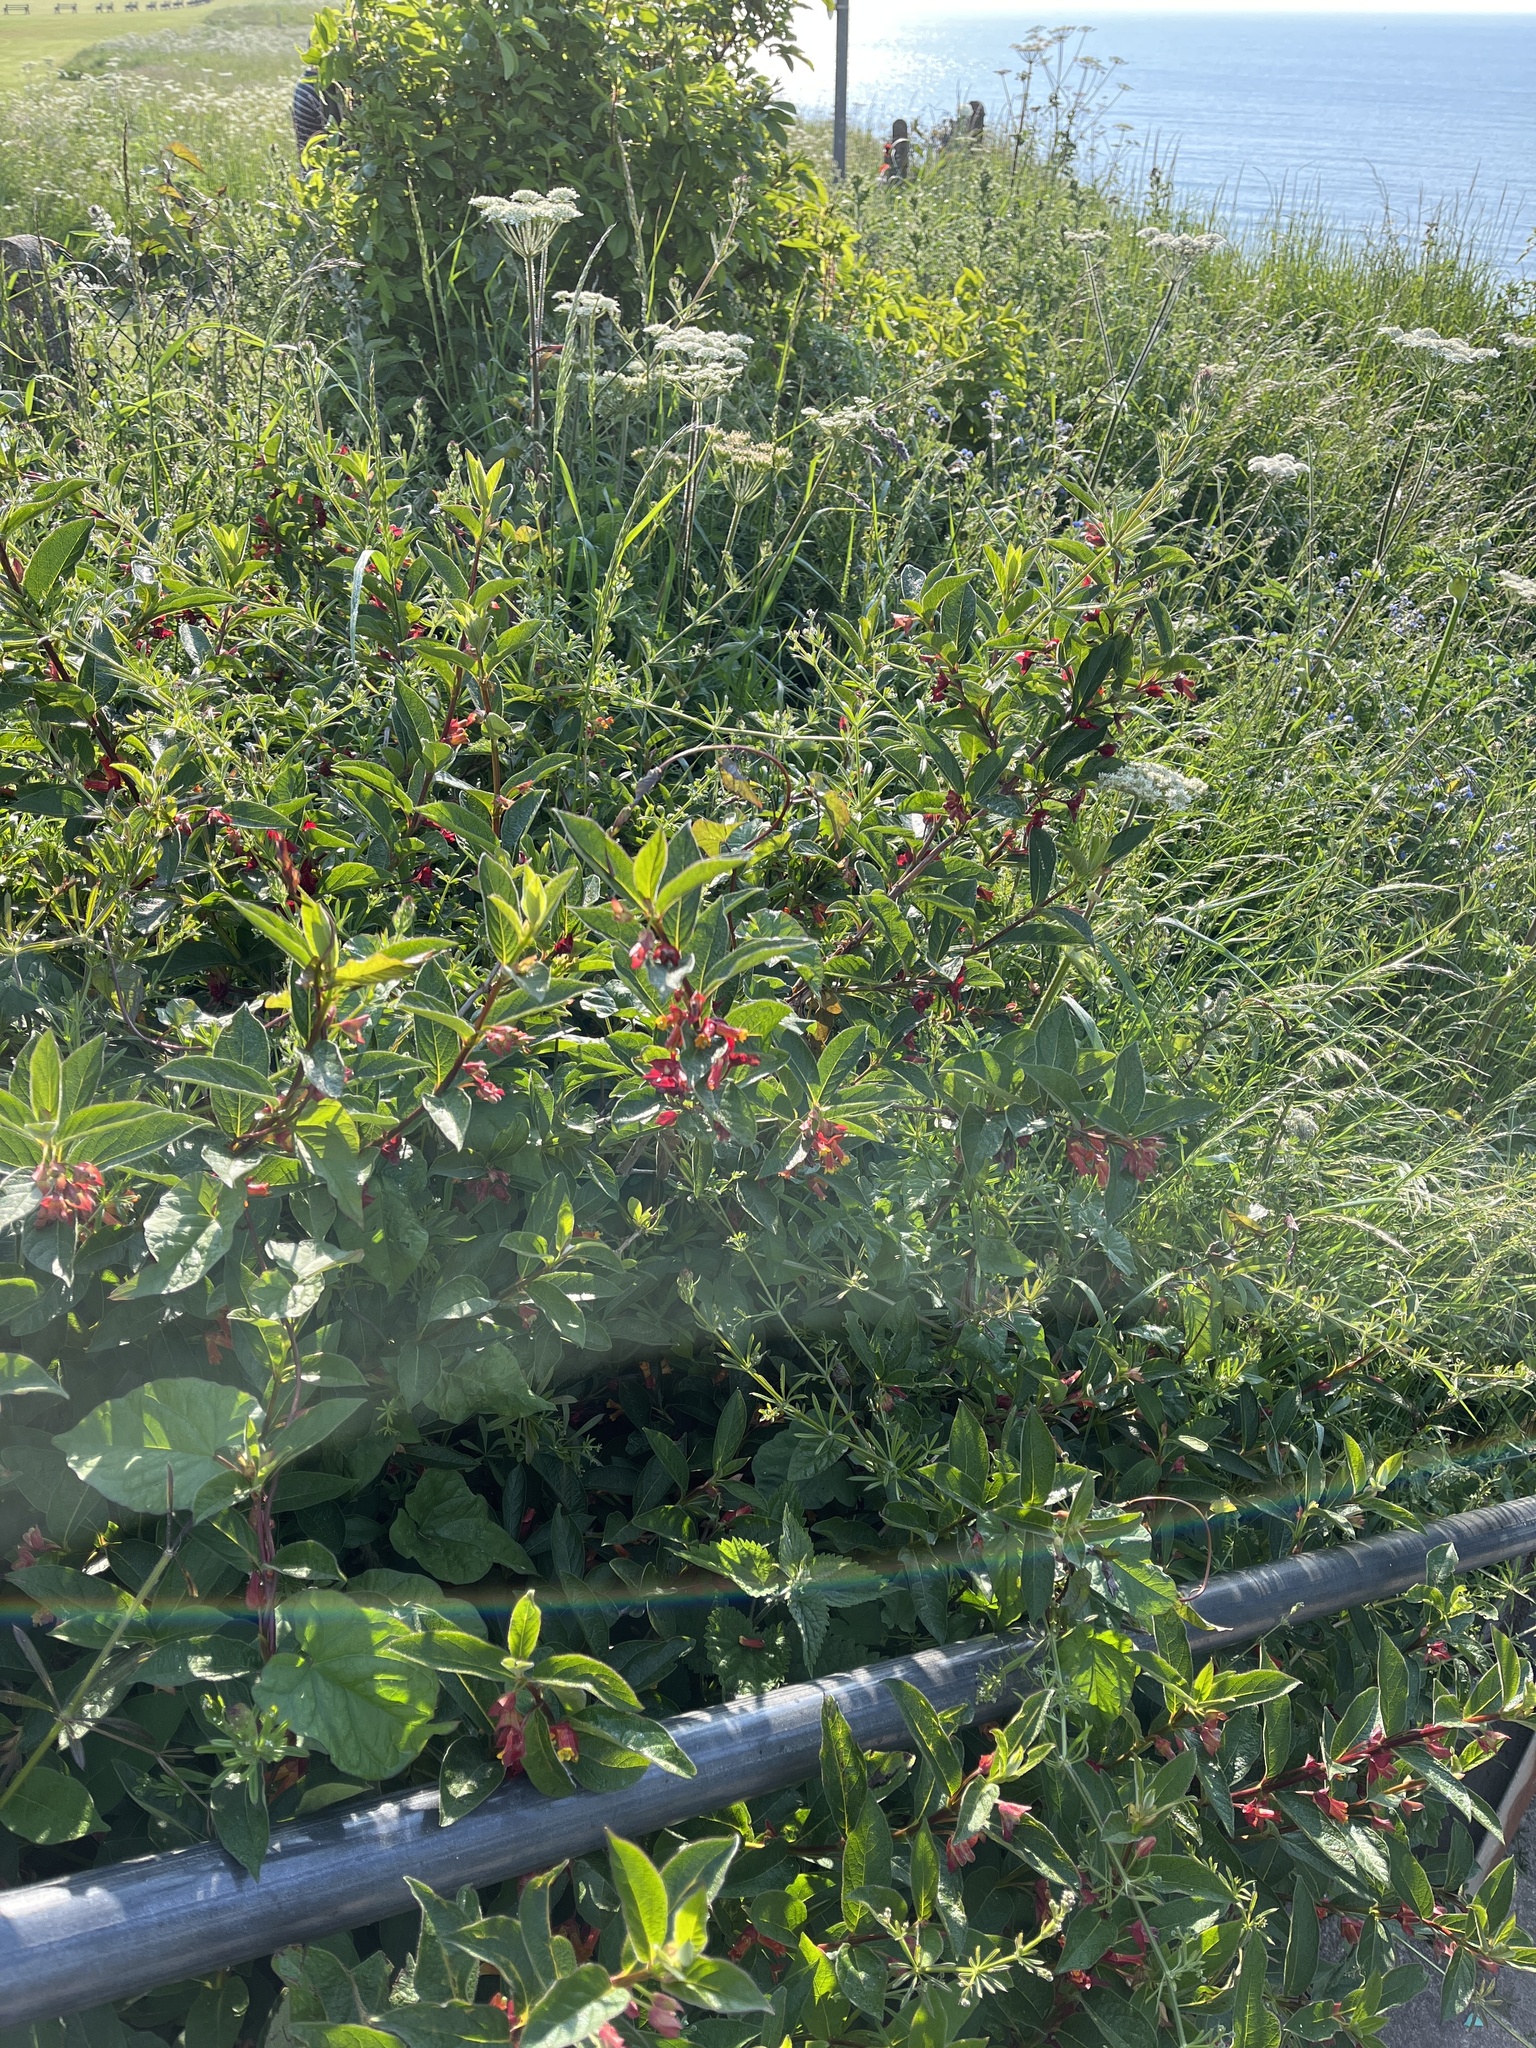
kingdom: Plantae
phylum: Tracheophyta
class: Magnoliopsida
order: Dipsacales
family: Caprifoliaceae
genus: Lonicera
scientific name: Lonicera involucrata
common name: Californian honeysuckle
